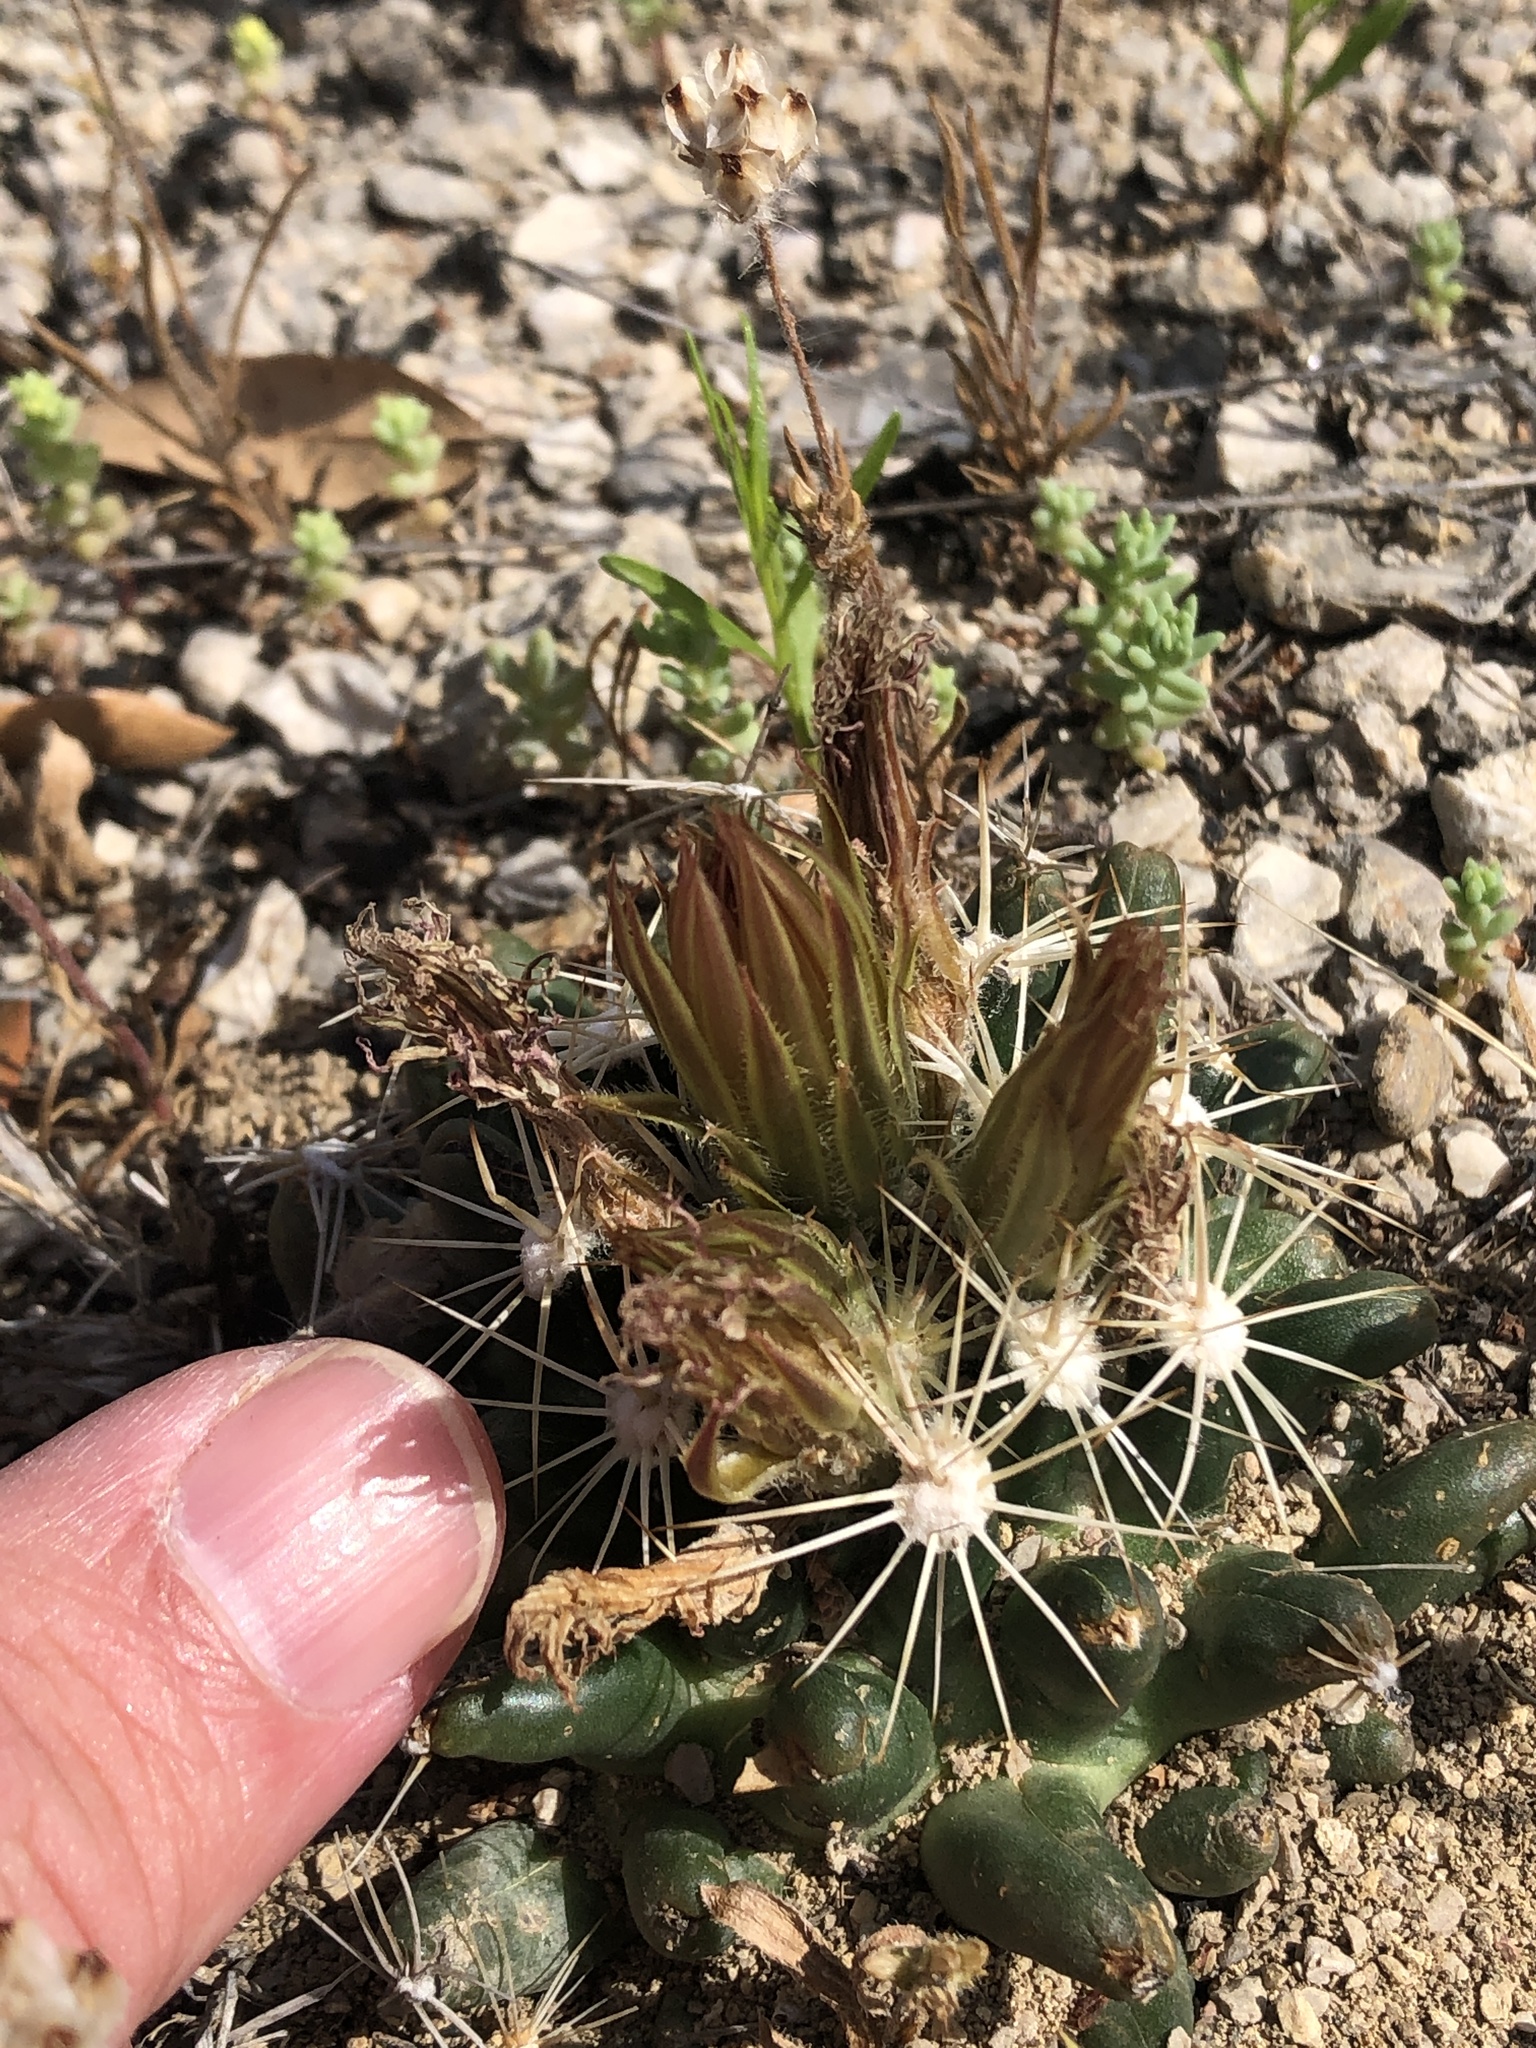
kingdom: Plantae
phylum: Tracheophyta
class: Magnoliopsida
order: Caryophyllales
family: Cactaceae
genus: Pelecyphora
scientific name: Pelecyphora missouriensis
